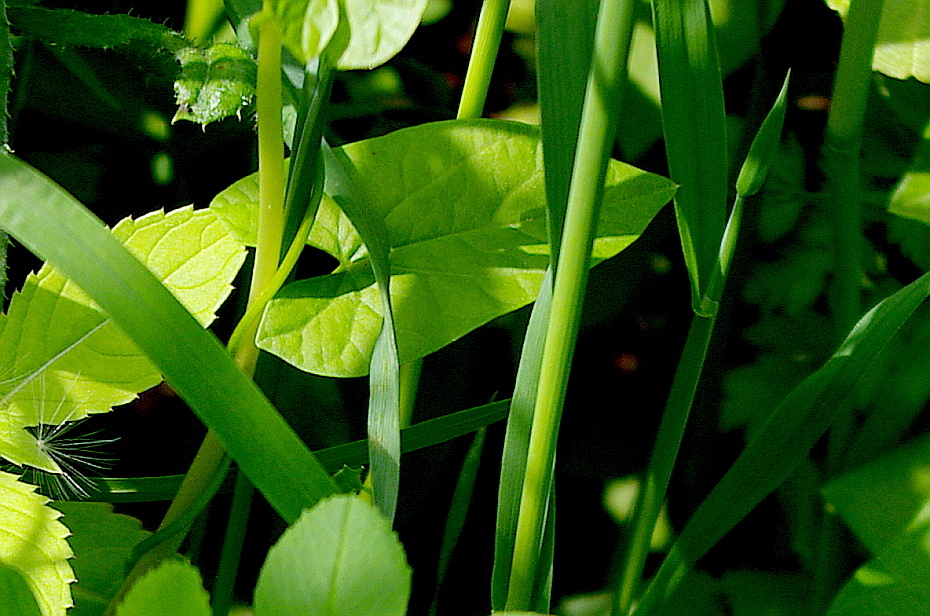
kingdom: Plantae
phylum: Tracheophyta
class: Magnoliopsida
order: Solanales
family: Convolvulaceae
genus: Convolvulus
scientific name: Convolvulus arvensis
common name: Field bindweed
